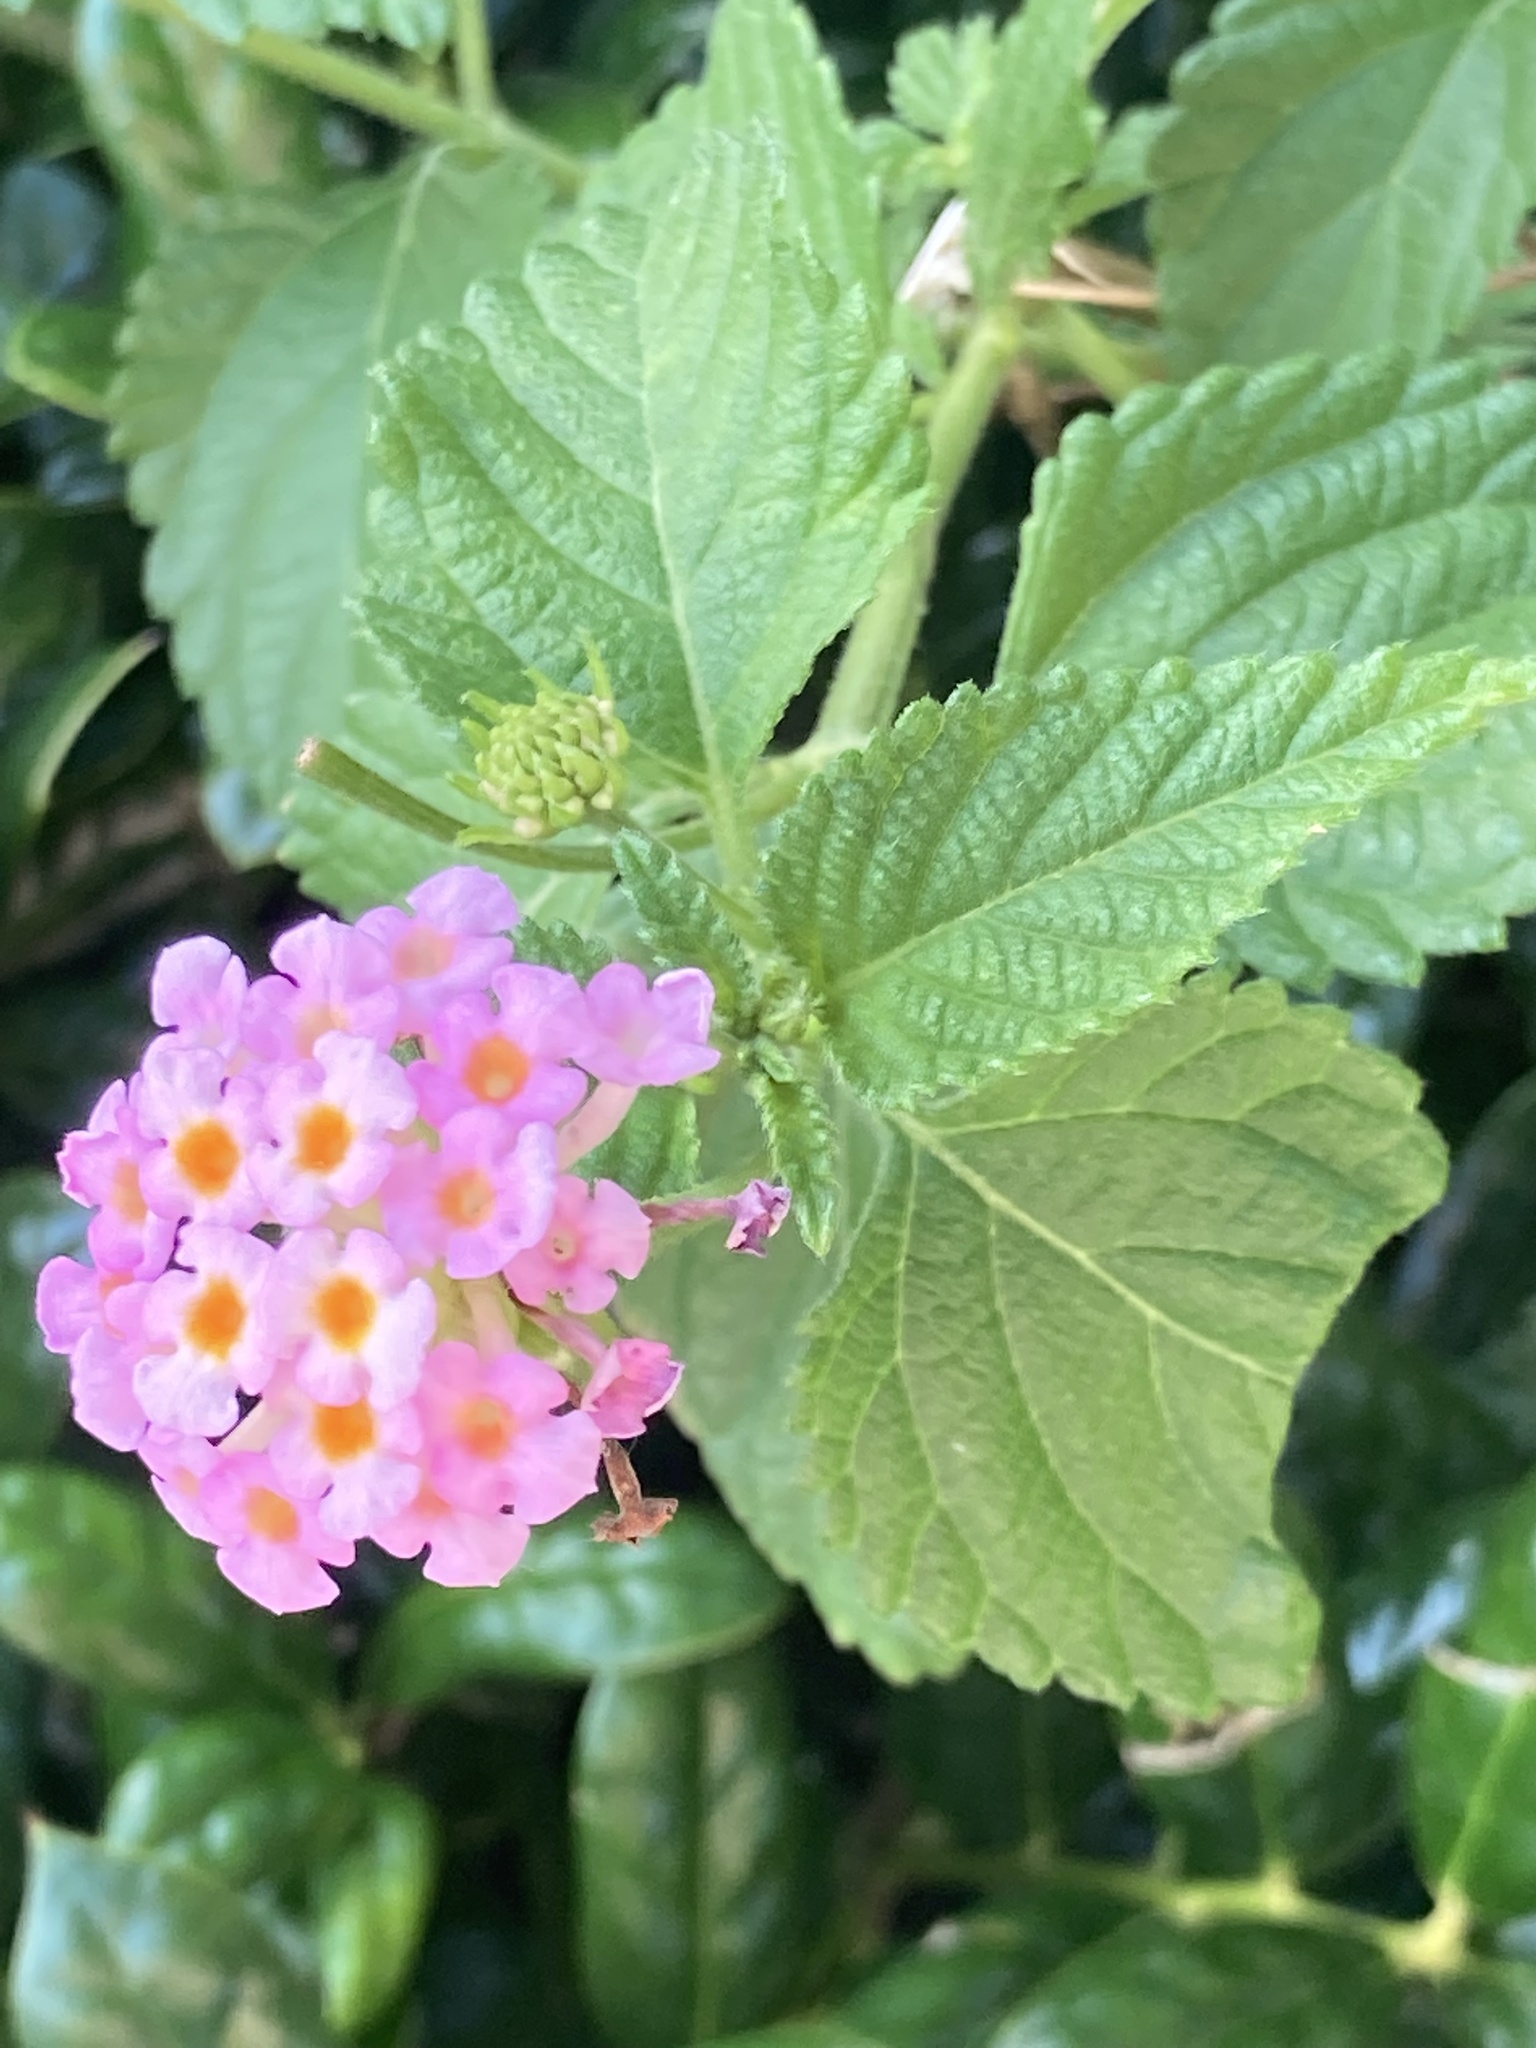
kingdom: Plantae
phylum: Tracheophyta
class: Magnoliopsida
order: Lamiales
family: Verbenaceae
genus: Lantana
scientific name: Lantana strigocamara
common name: Lantana
